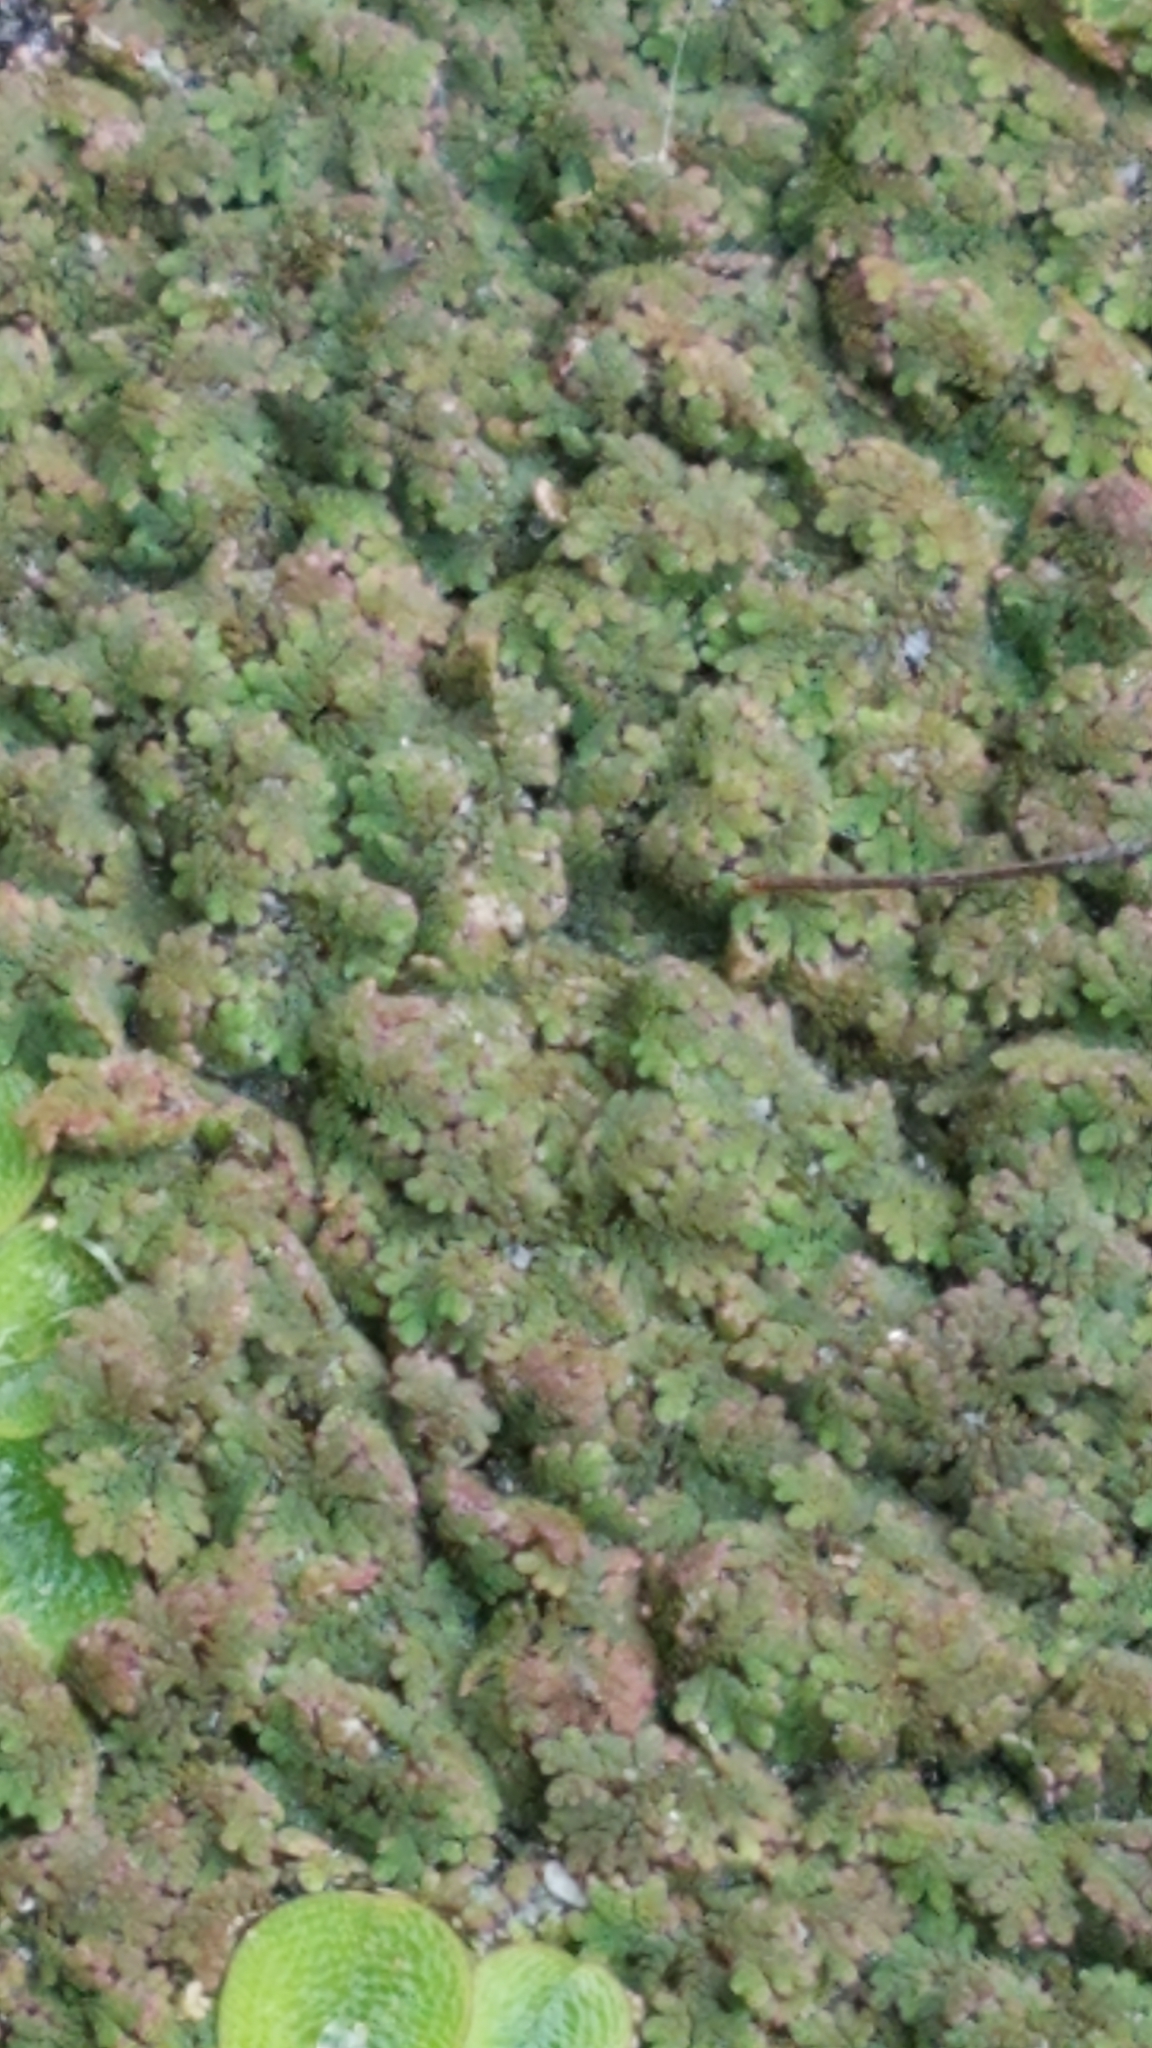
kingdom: Plantae
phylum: Tracheophyta
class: Polypodiopsida
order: Salviniales
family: Salviniaceae
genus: Azolla
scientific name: Azolla filiculoides
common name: Water fern
